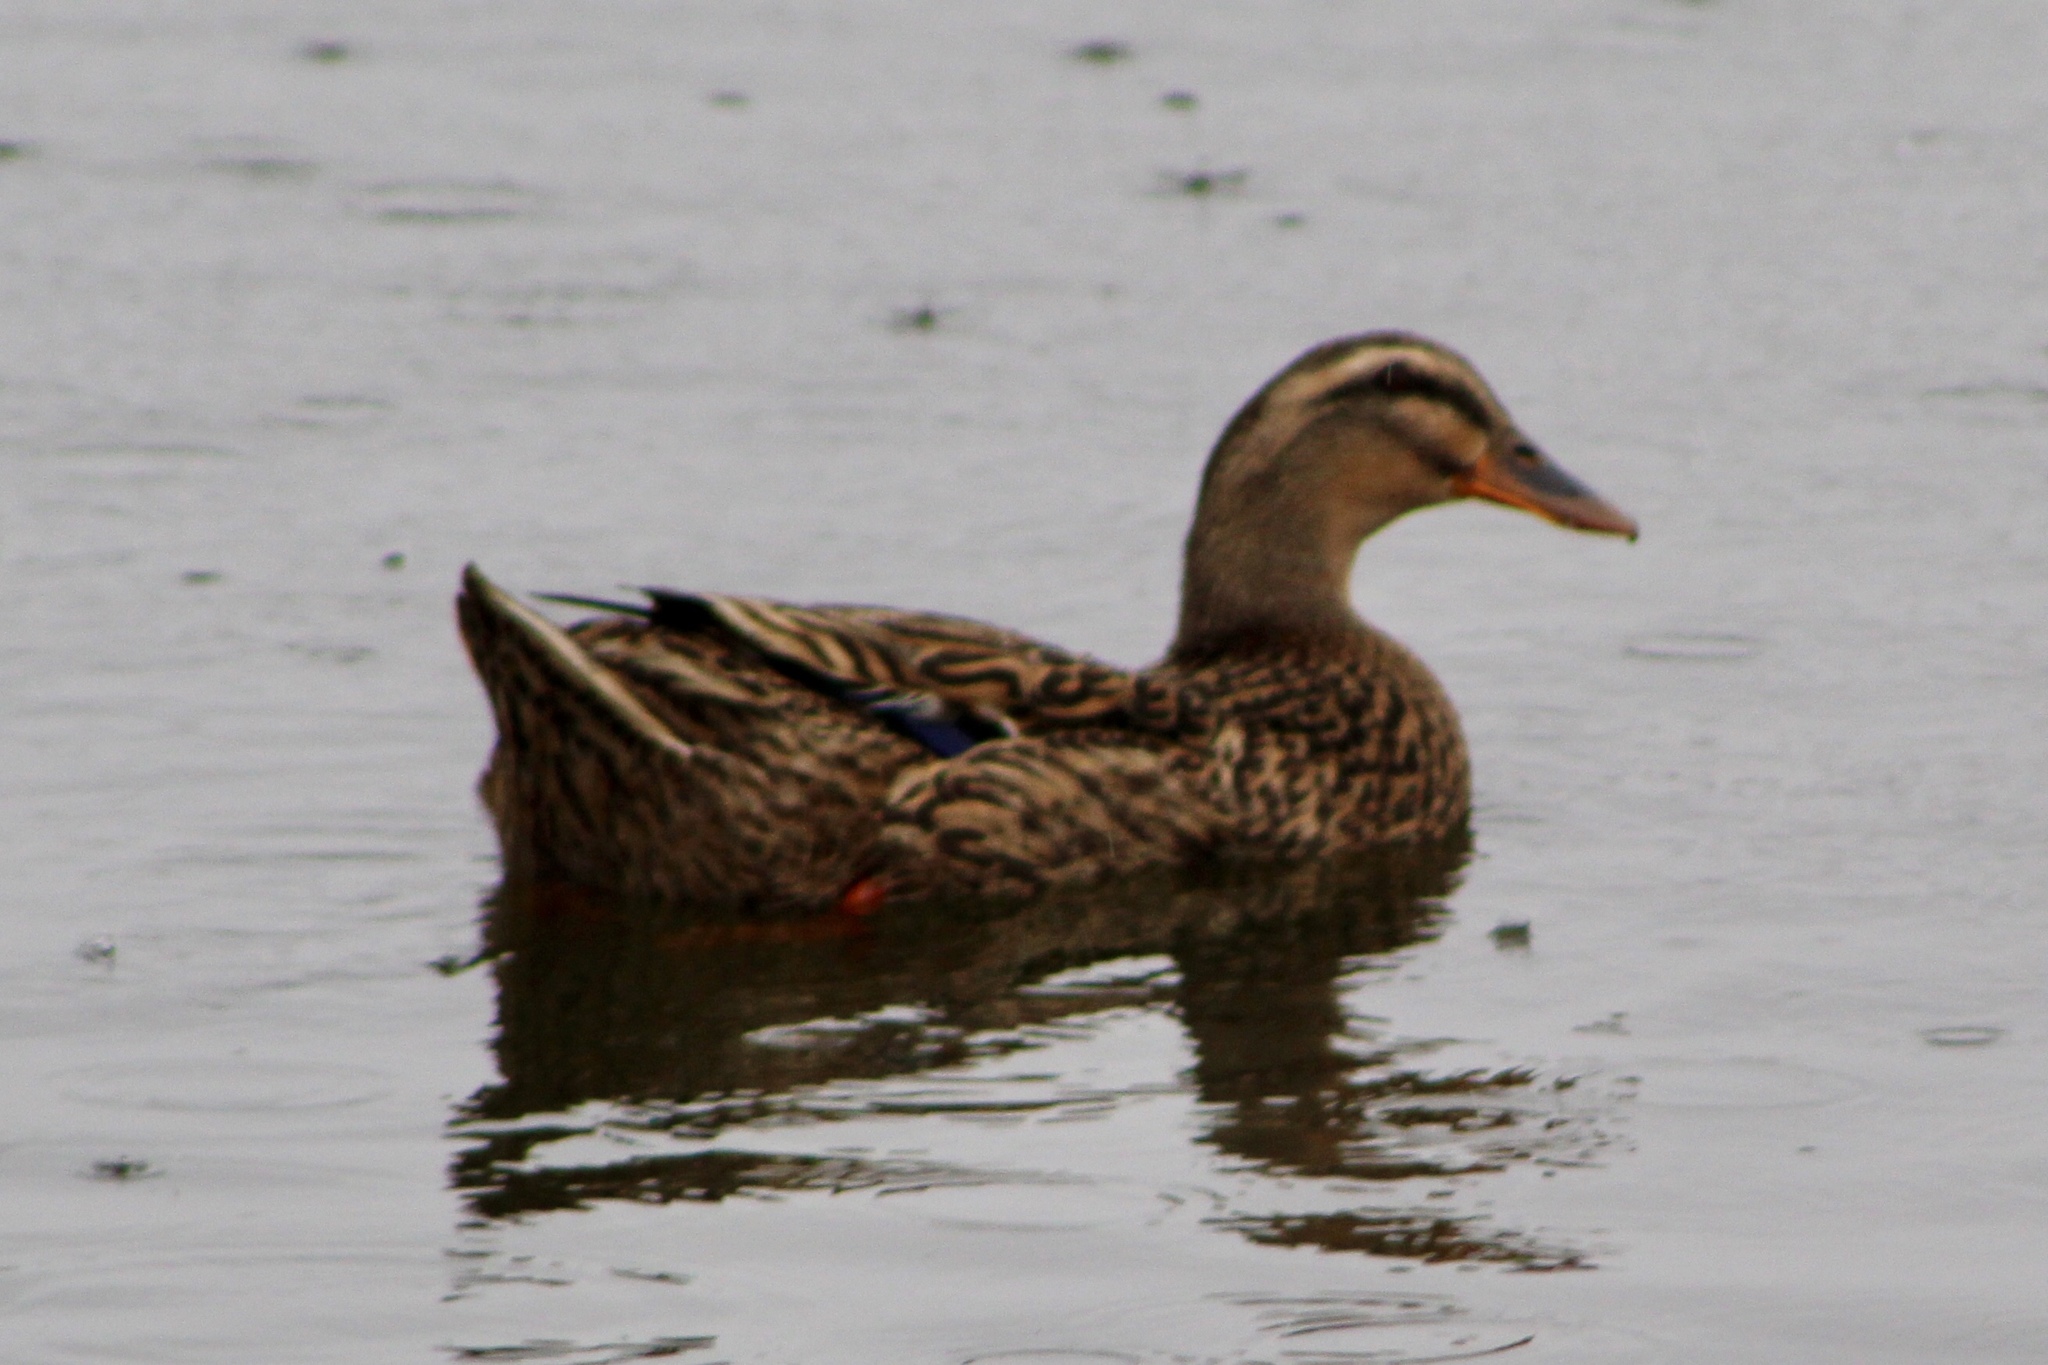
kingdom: Animalia
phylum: Chordata
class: Aves
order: Anseriformes
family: Anatidae
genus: Anas
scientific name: Anas platyrhynchos
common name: Mallard
